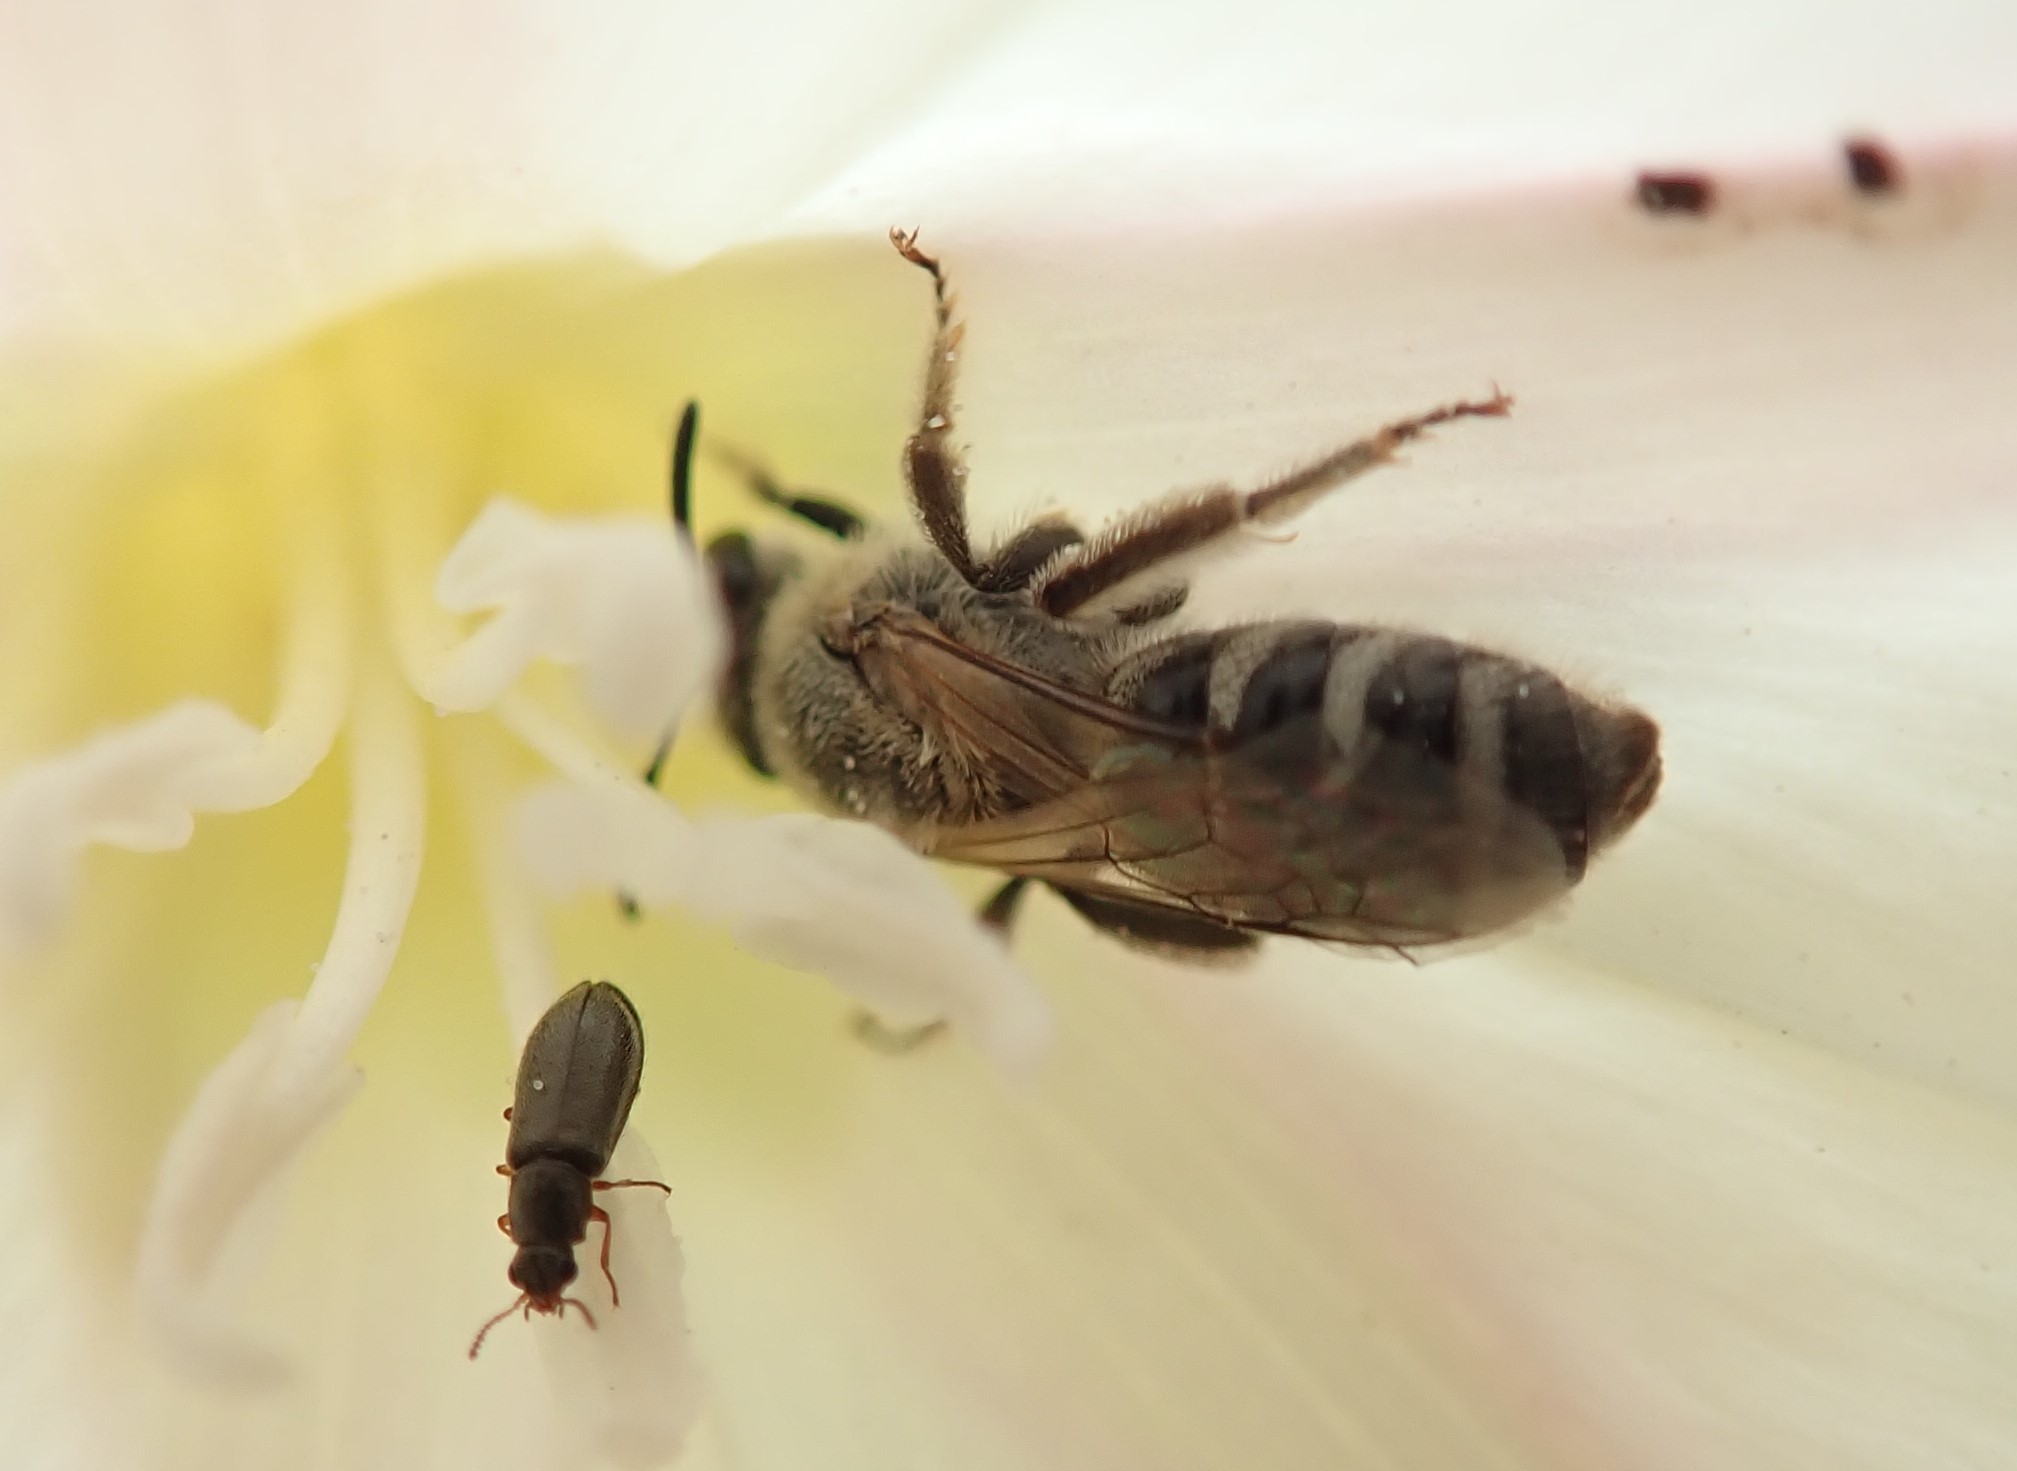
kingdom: Animalia
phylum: Arthropoda
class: Insecta
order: Hymenoptera
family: Halictidae
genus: Lasioglossum
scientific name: Lasioglossum sisymbrii
